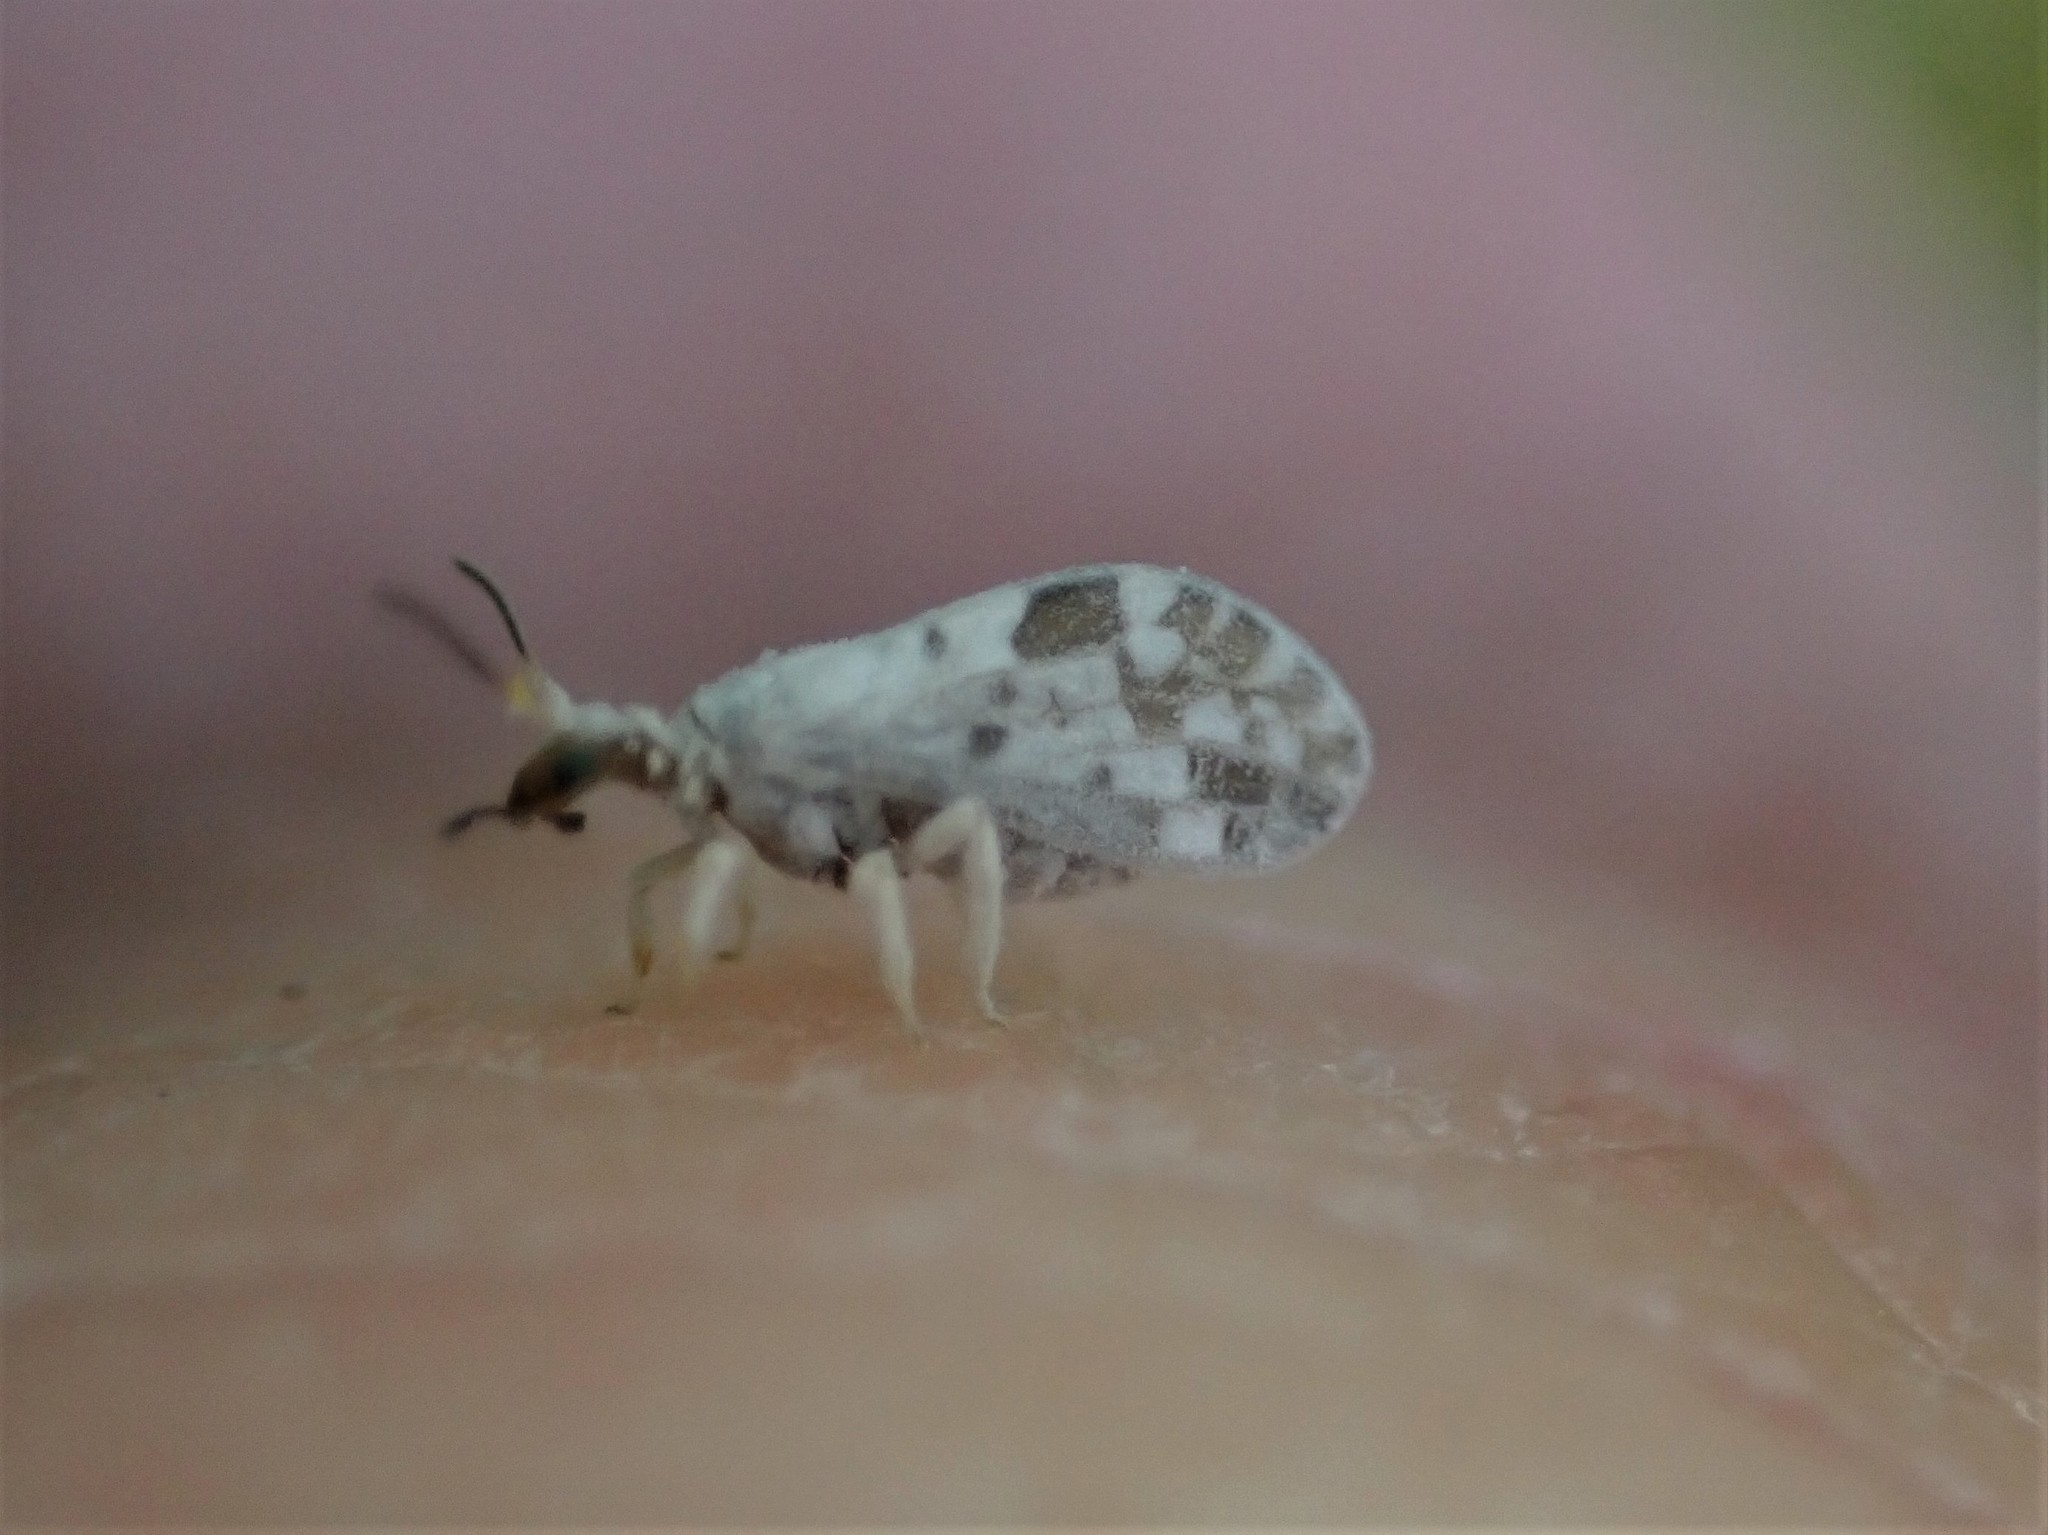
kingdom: Animalia
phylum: Arthropoda
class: Insecta
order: Neuroptera
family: Coniopterygidae
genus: Heteroconis
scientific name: Heteroconis ornata
